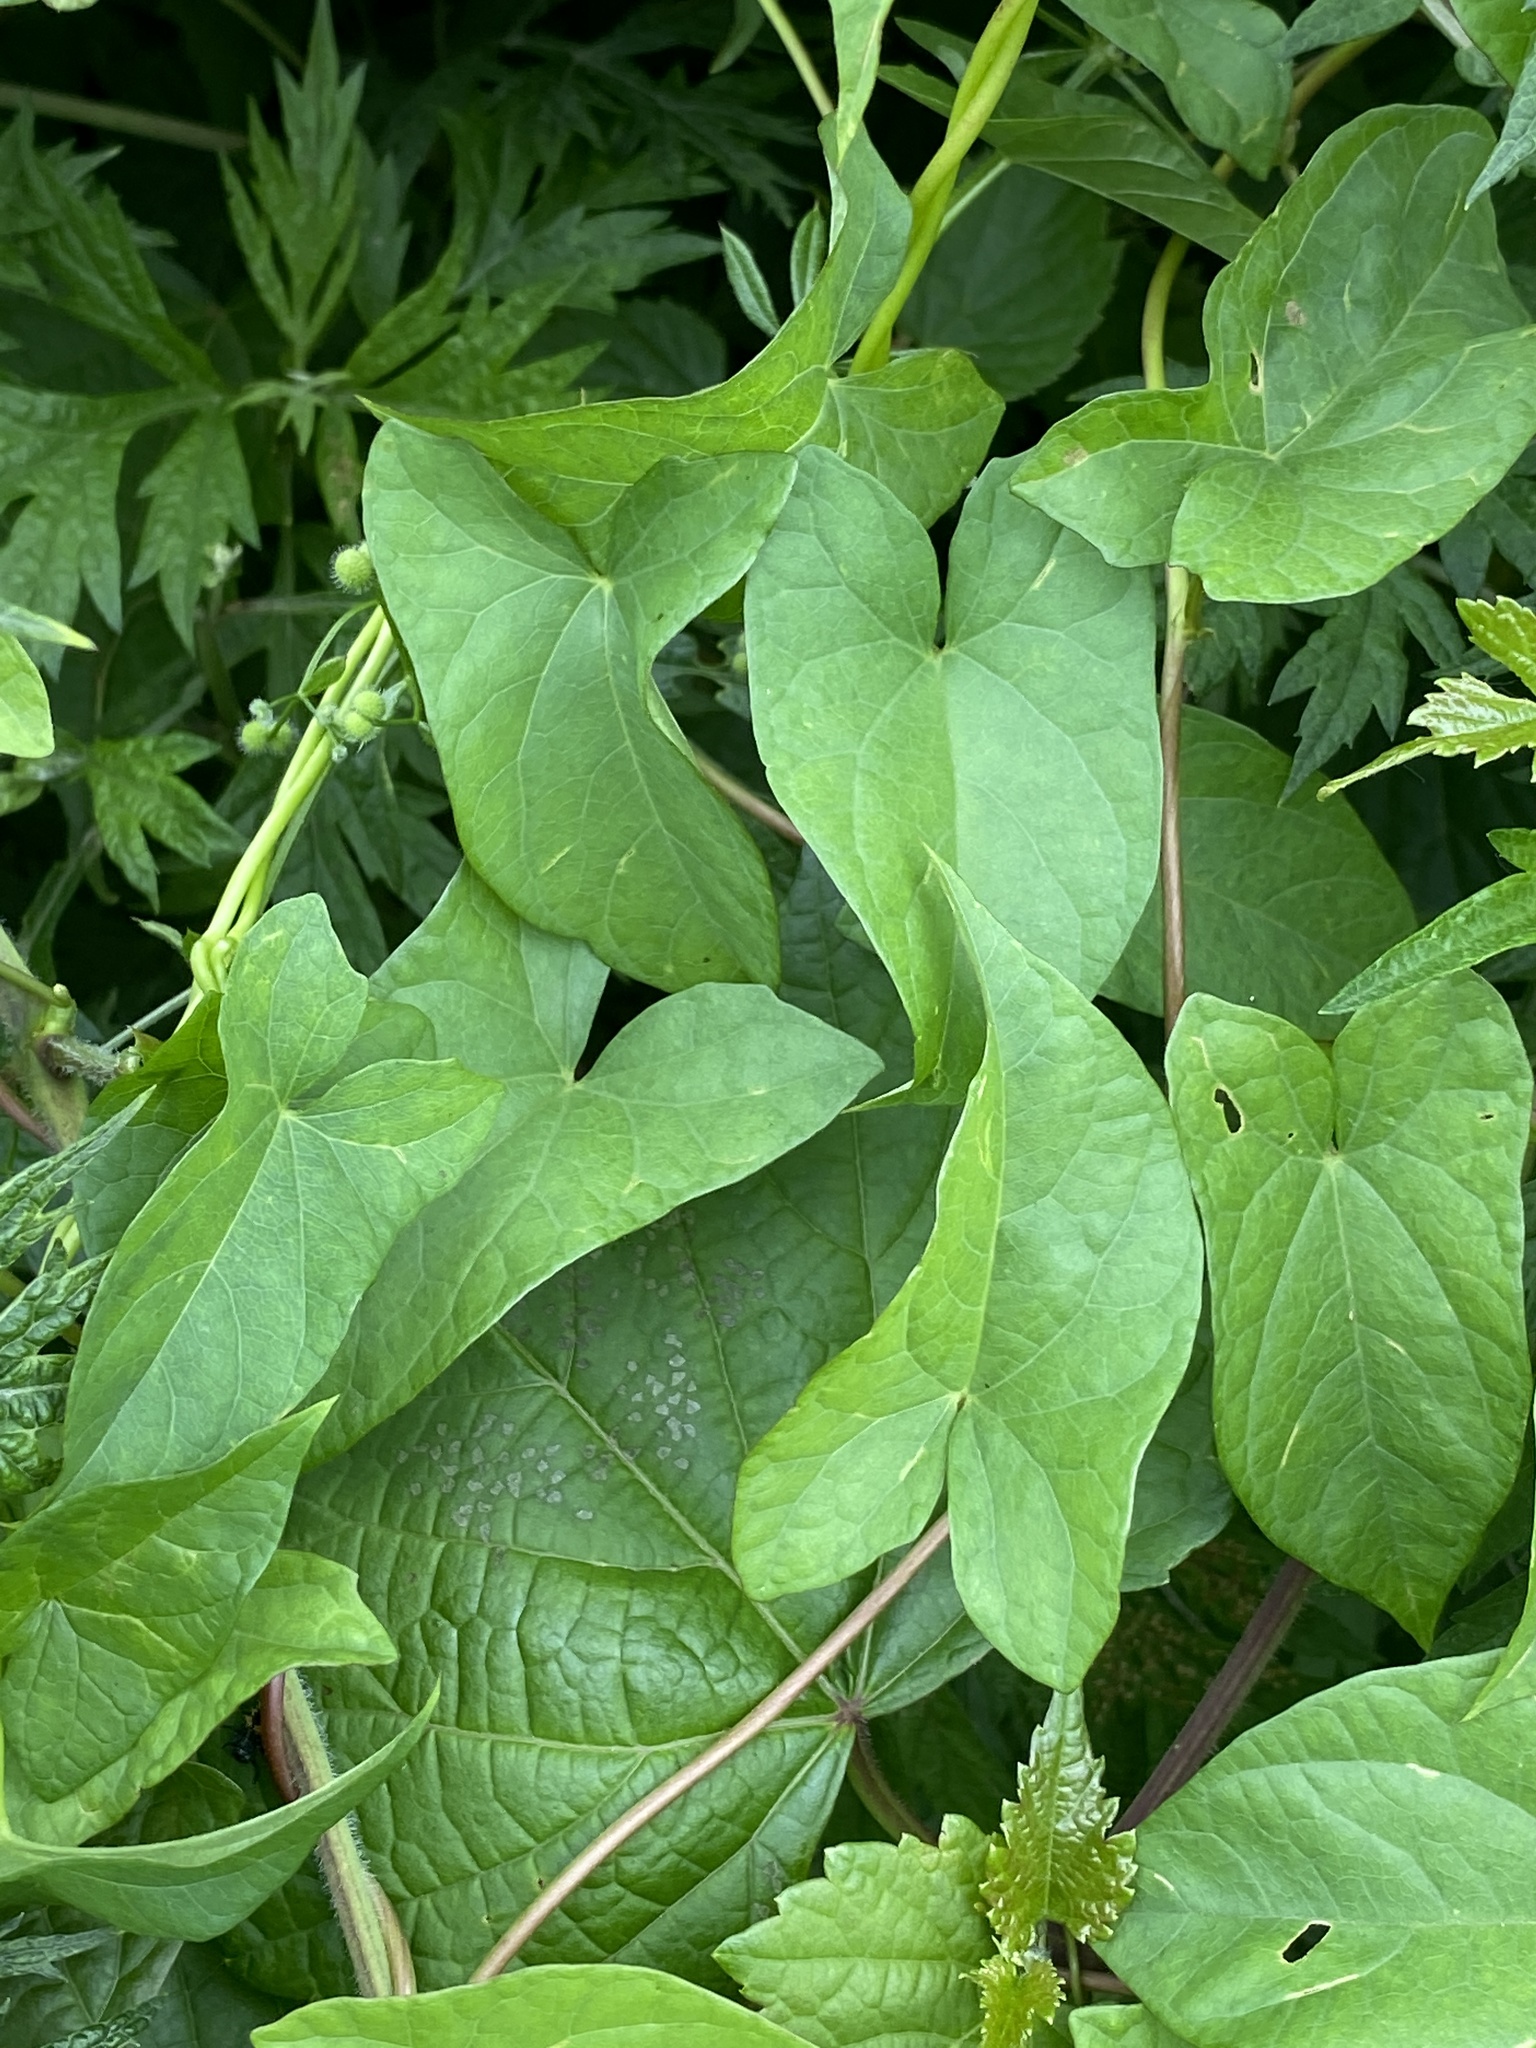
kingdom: Plantae
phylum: Tracheophyta
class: Magnoliopsida
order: Solanales
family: Convolvulaceae
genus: Calystegia
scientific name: Calystegia sepium
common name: Hedge bindweed
